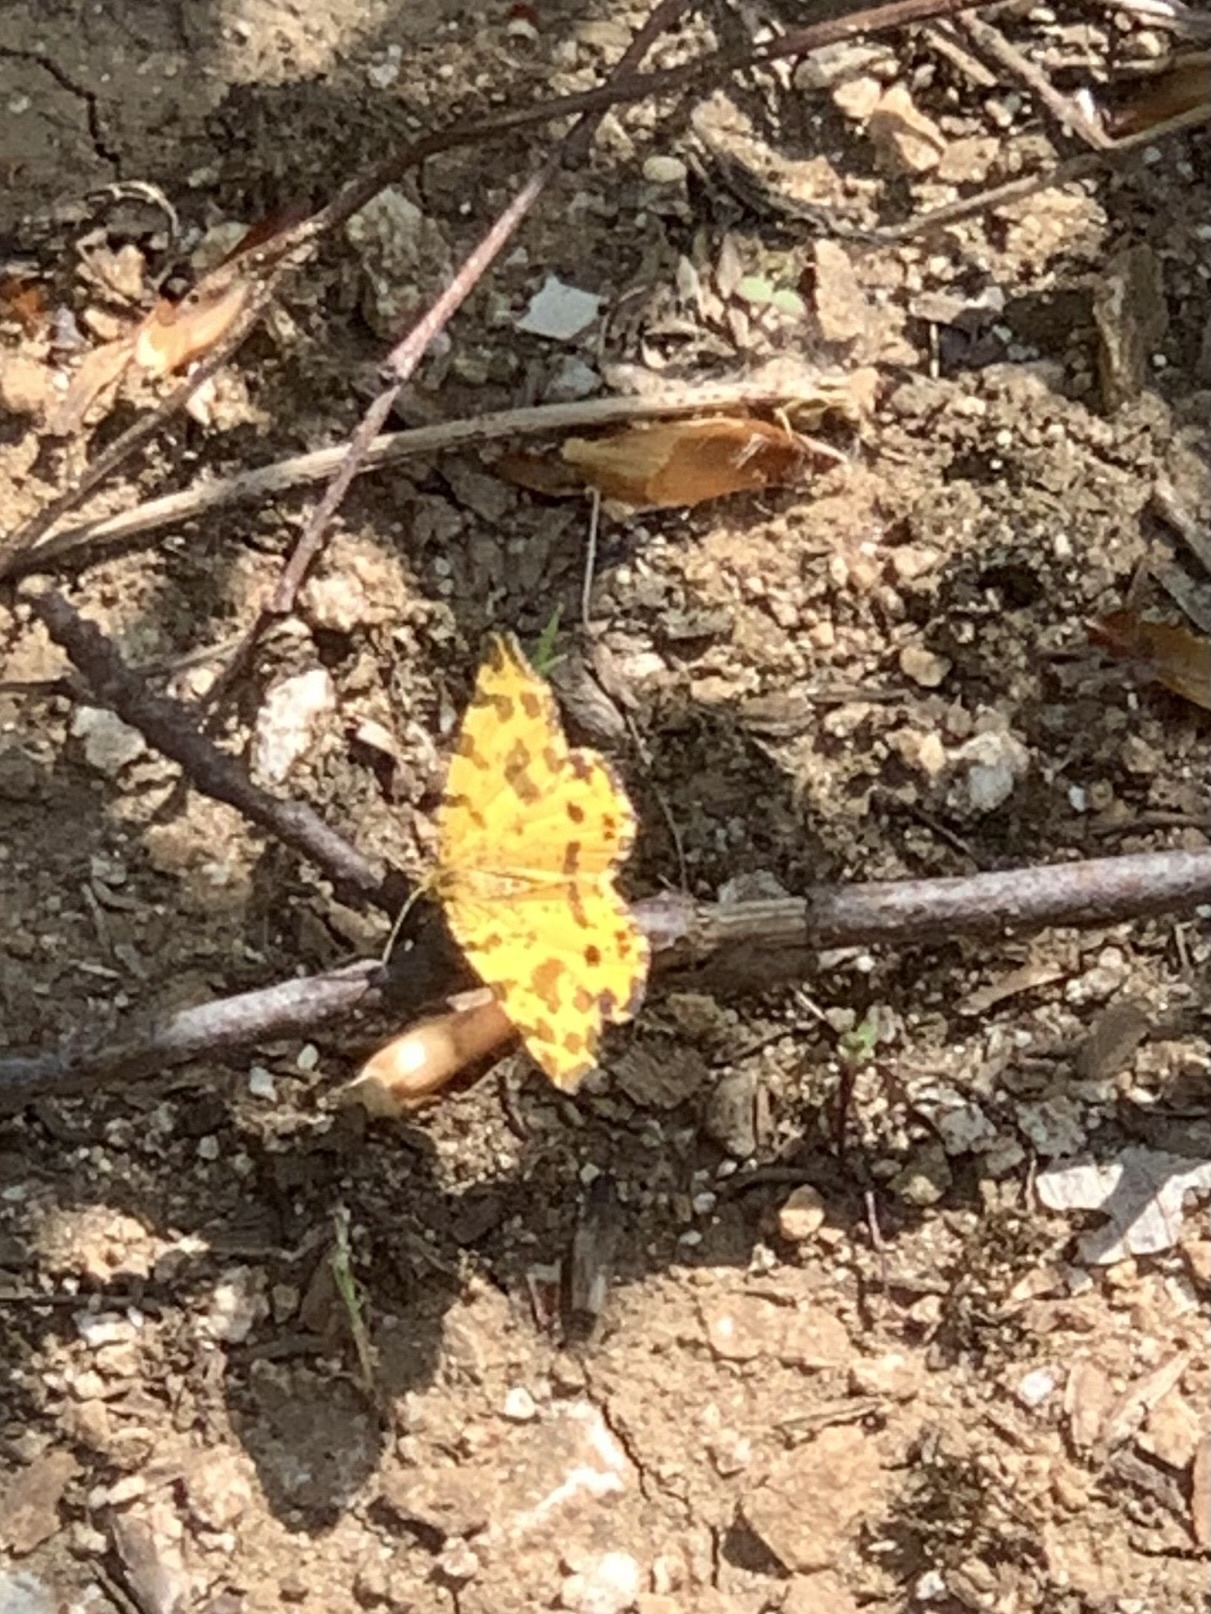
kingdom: Animalia
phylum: Arthropoda
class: Insecta
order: Lepidoptera
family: Geometridae
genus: Pseudopanthera
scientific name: Pseudopanthera macularia
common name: Speckled yellow
